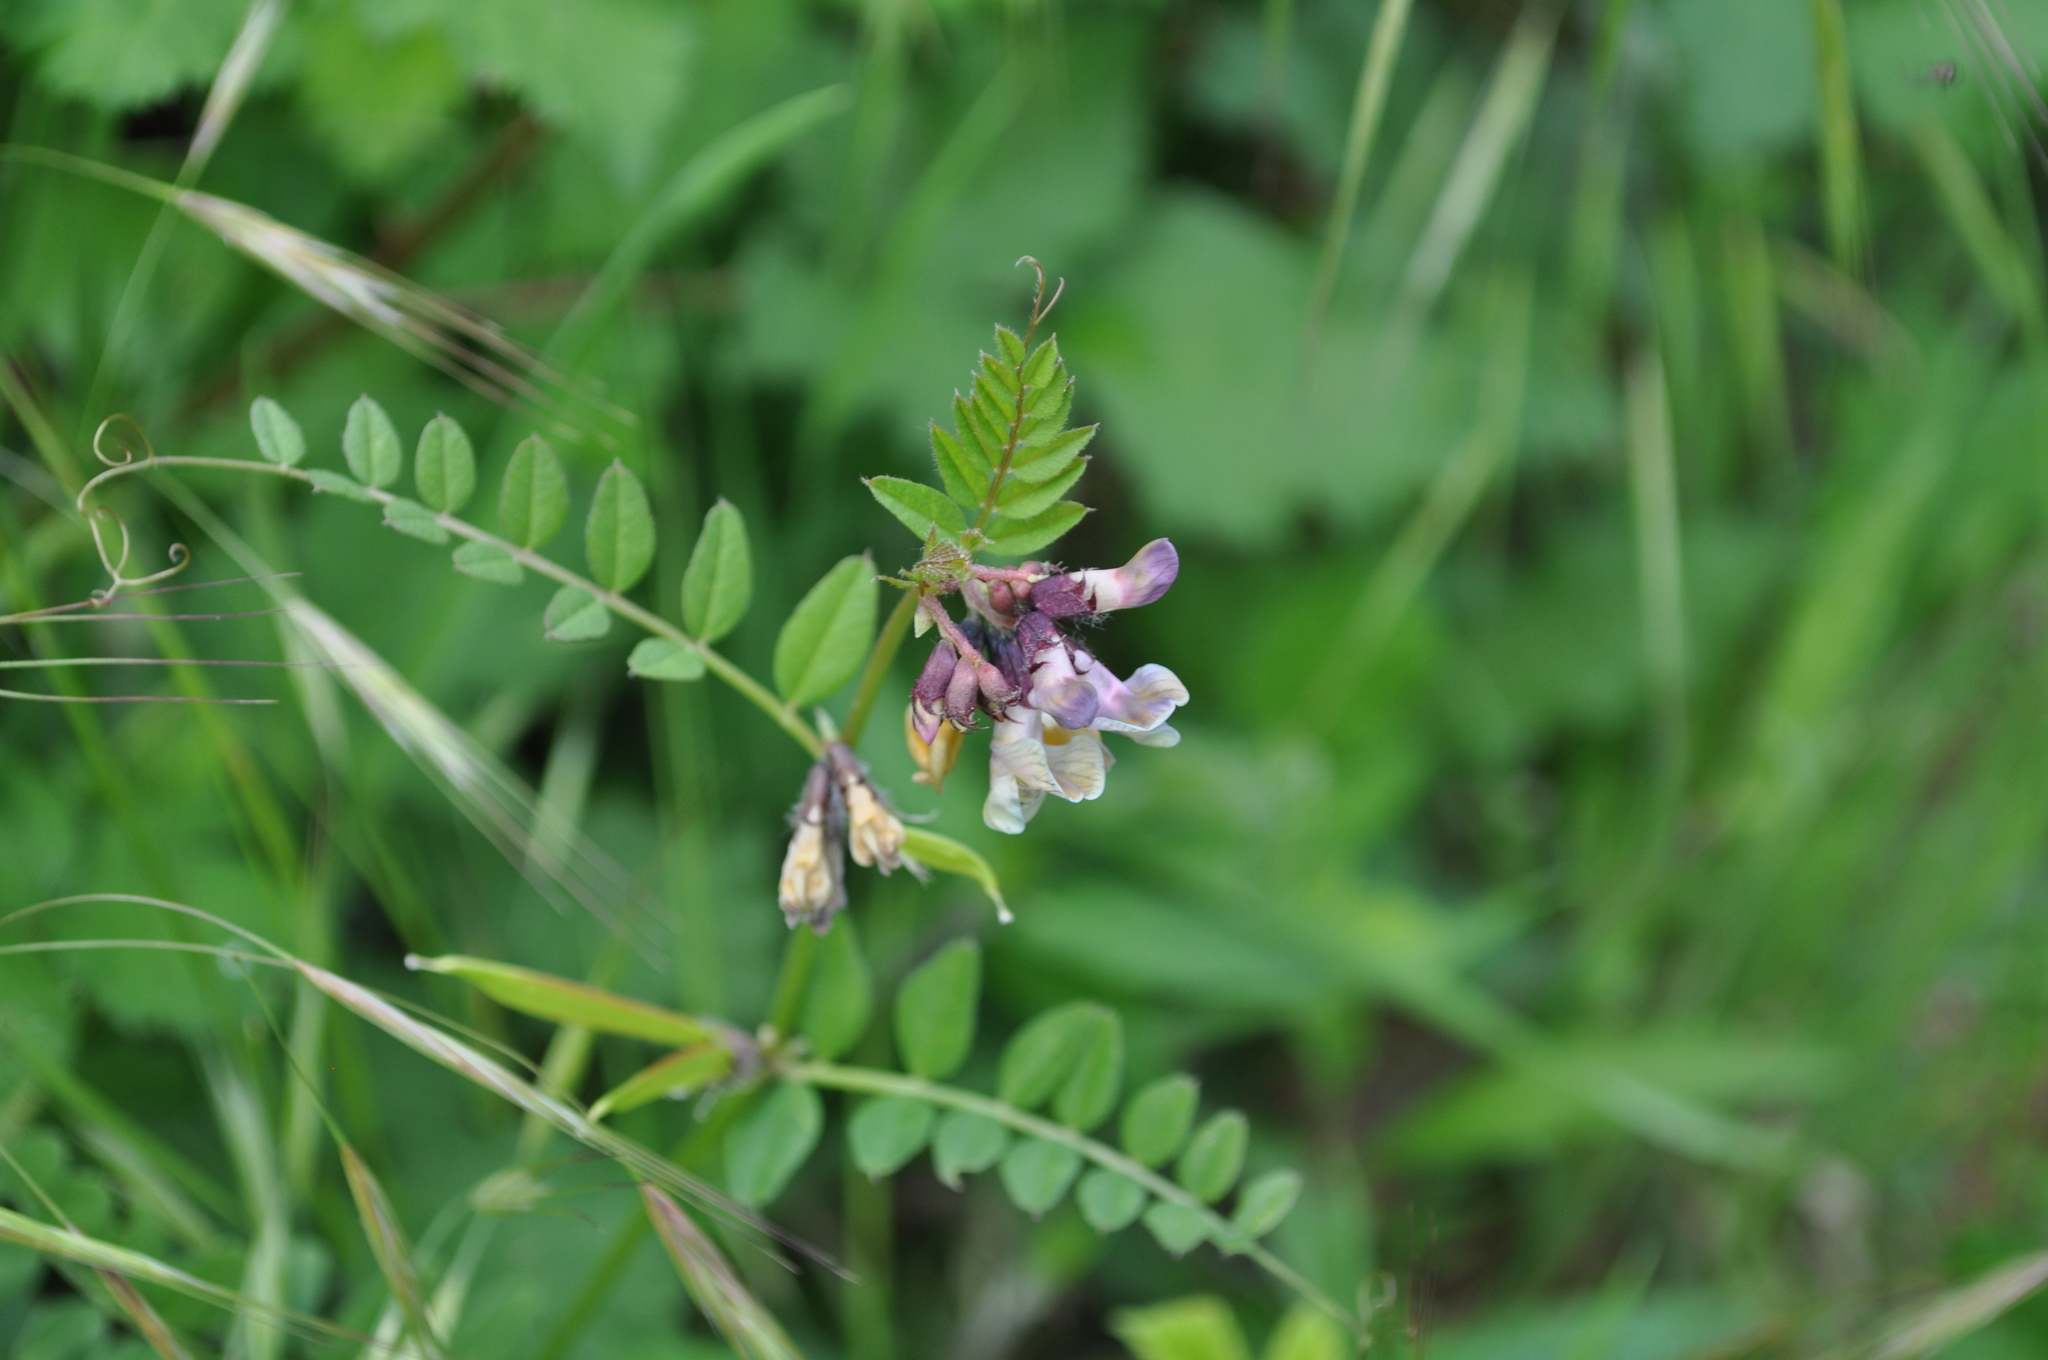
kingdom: Plantae
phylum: Tracheophyta
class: Magnoliopsida
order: Fabales
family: Fabaceae
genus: Vicia
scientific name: Vicia sepium
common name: Bush vetch
